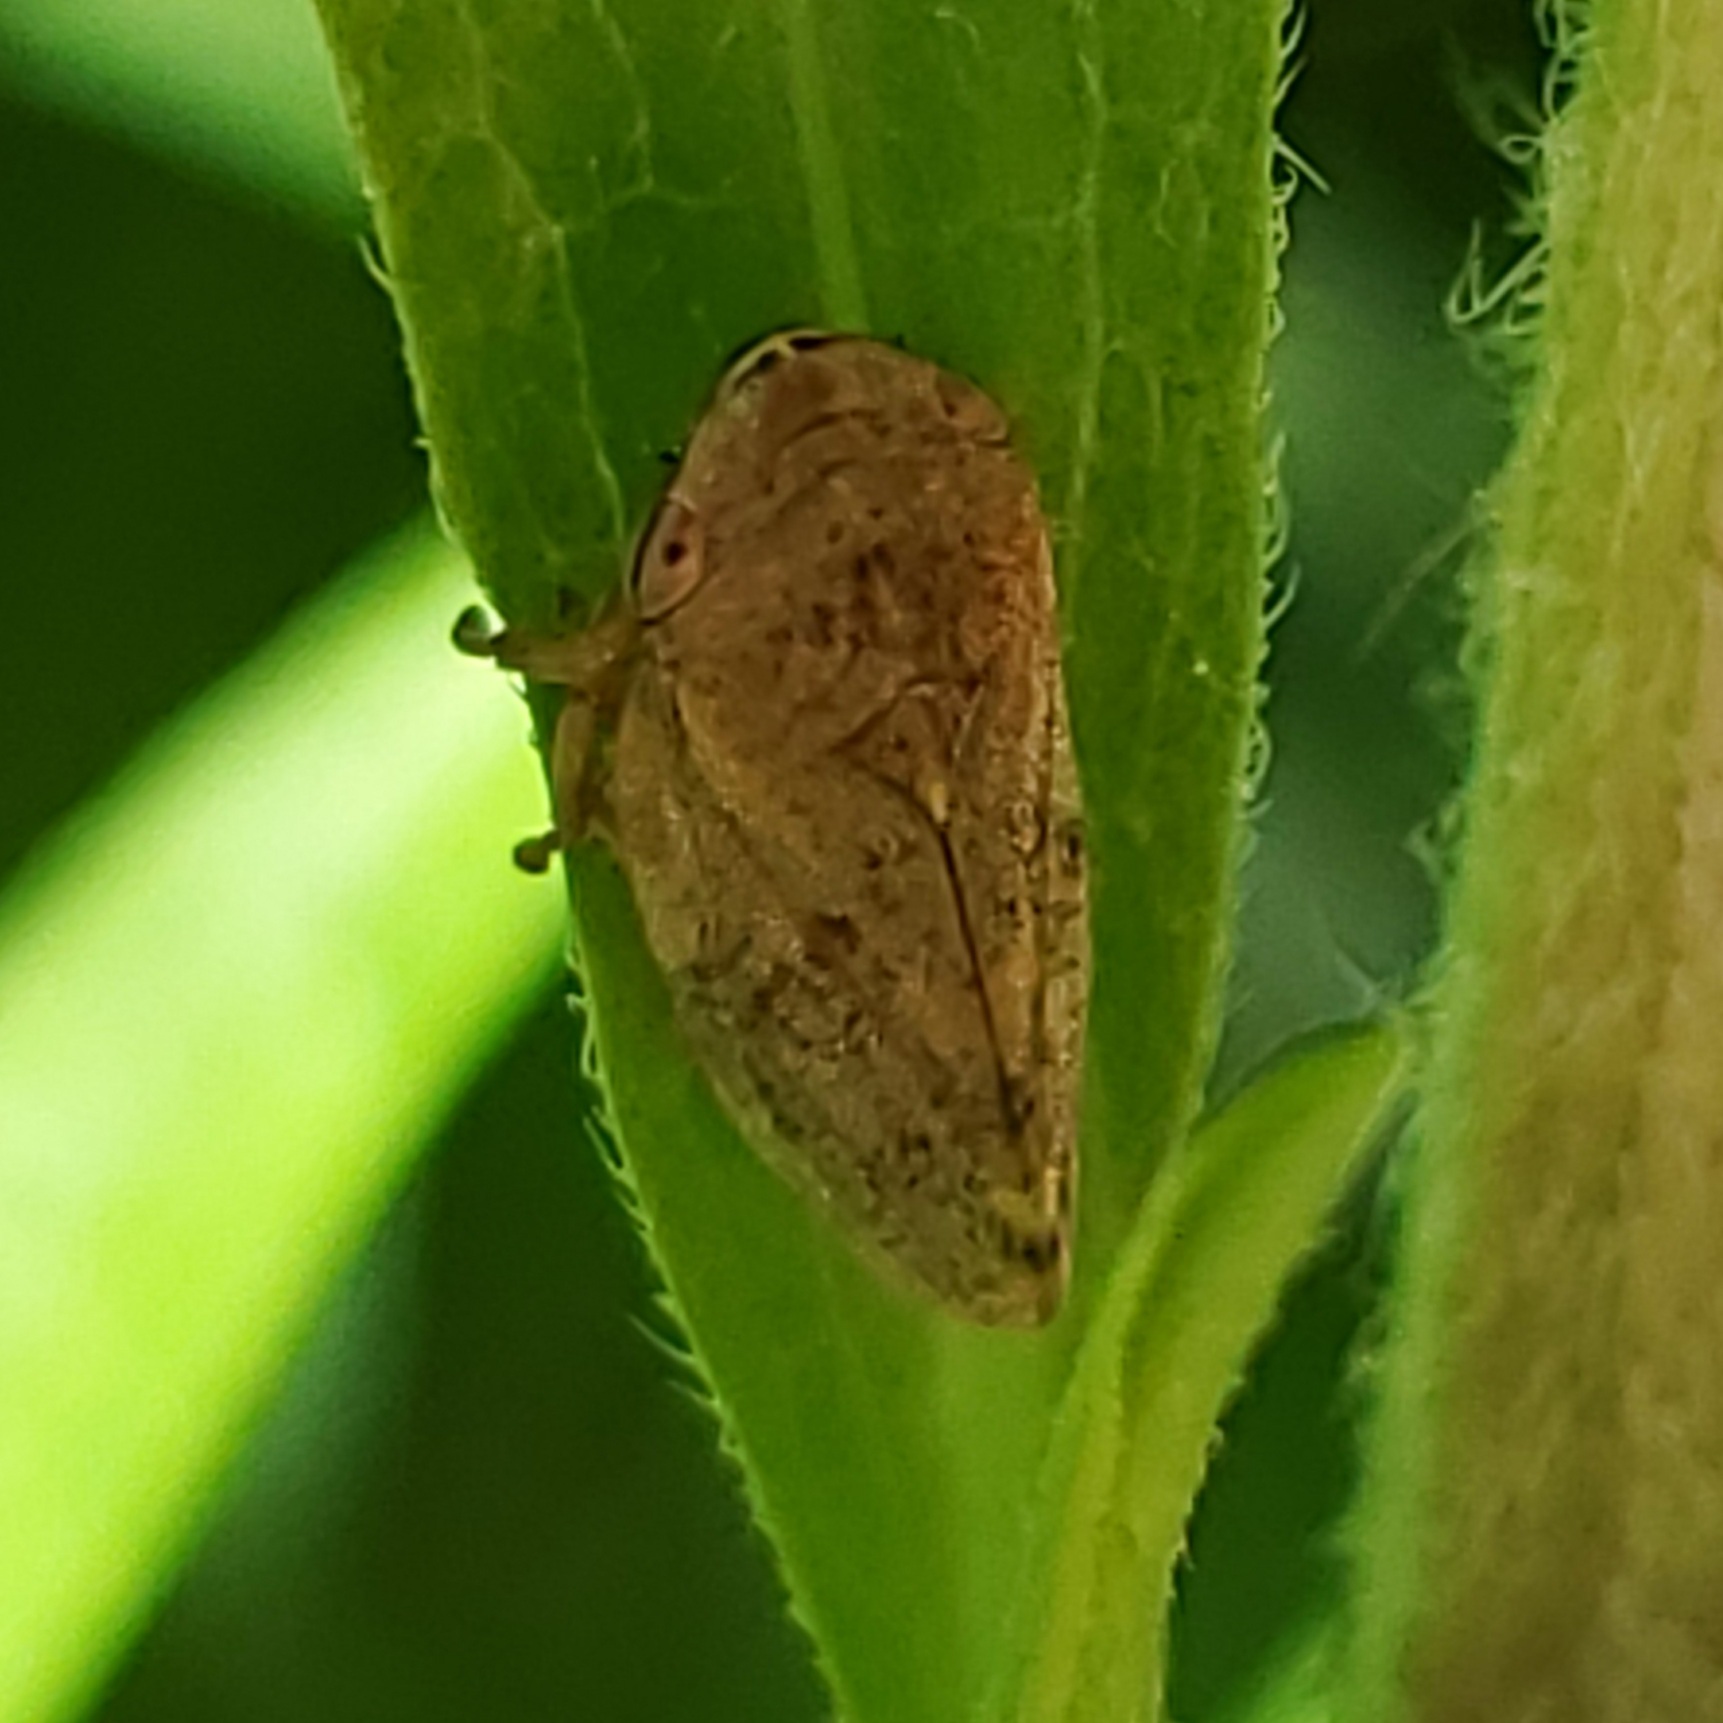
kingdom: Animalia
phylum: Arthropoda
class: Insecta
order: Hemiptera
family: Aphrophoridae
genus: Philaenus
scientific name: Philaenus spumarius
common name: Meadow spittlebug
